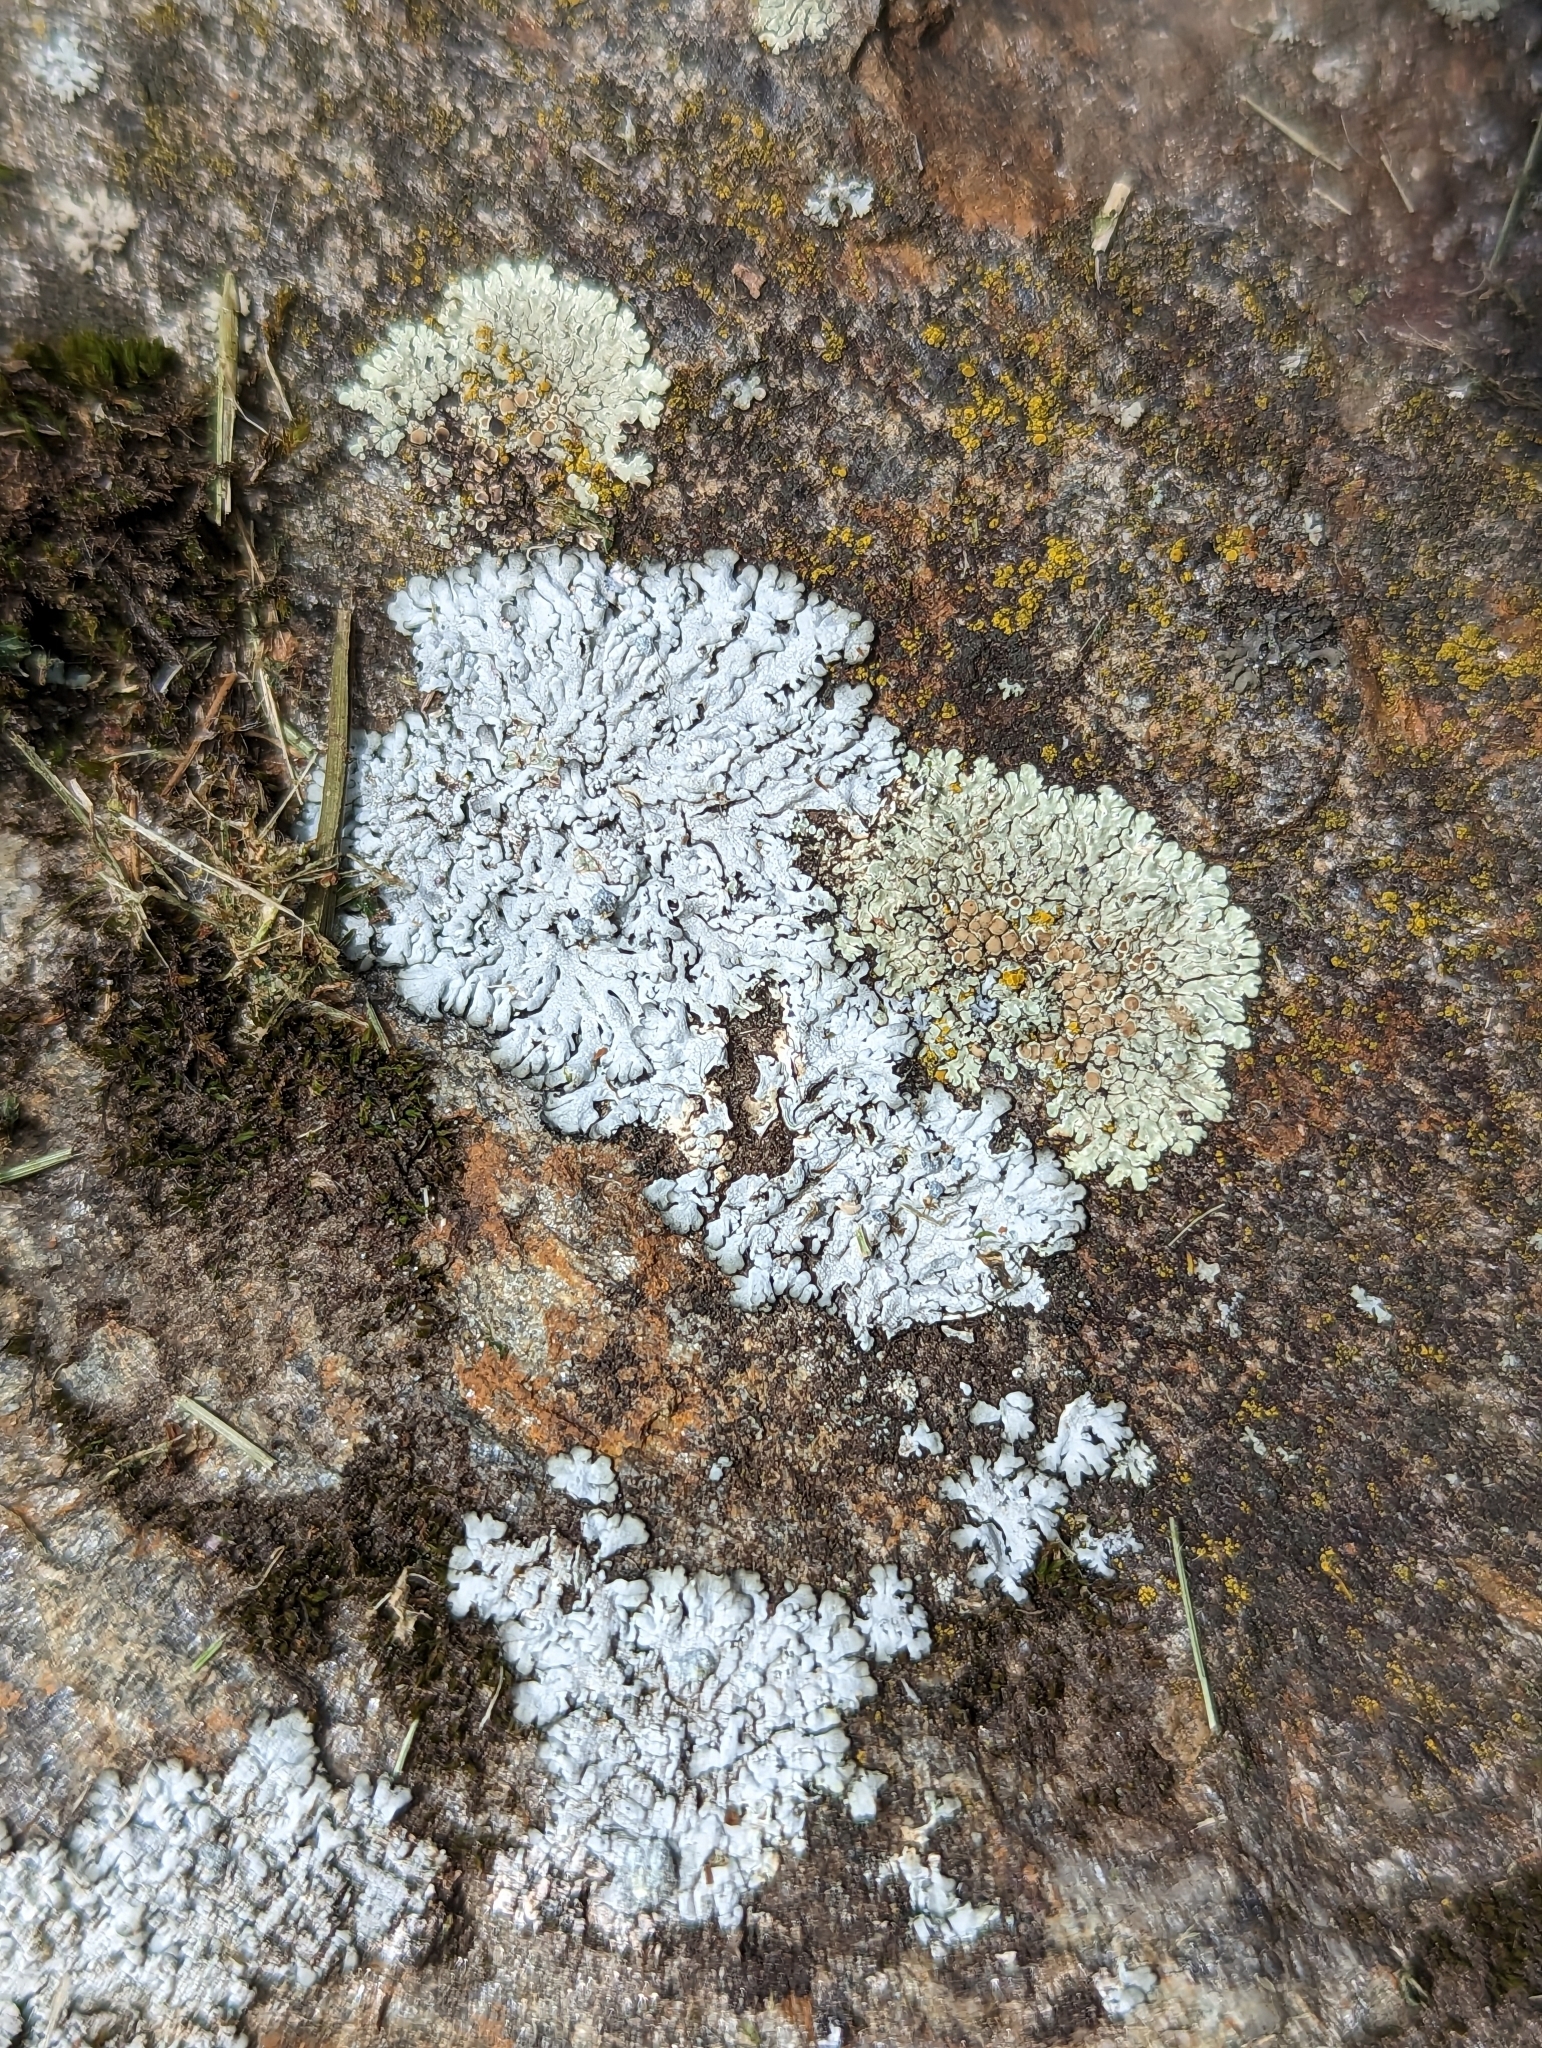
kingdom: Fungi
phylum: Ascomycota
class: Lecanoromycetes
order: Lecanorales
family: Lecanoraceae
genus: Protoparmeliopsis
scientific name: Protoparmeliopsis muralis
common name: Stonewall rim lichen
